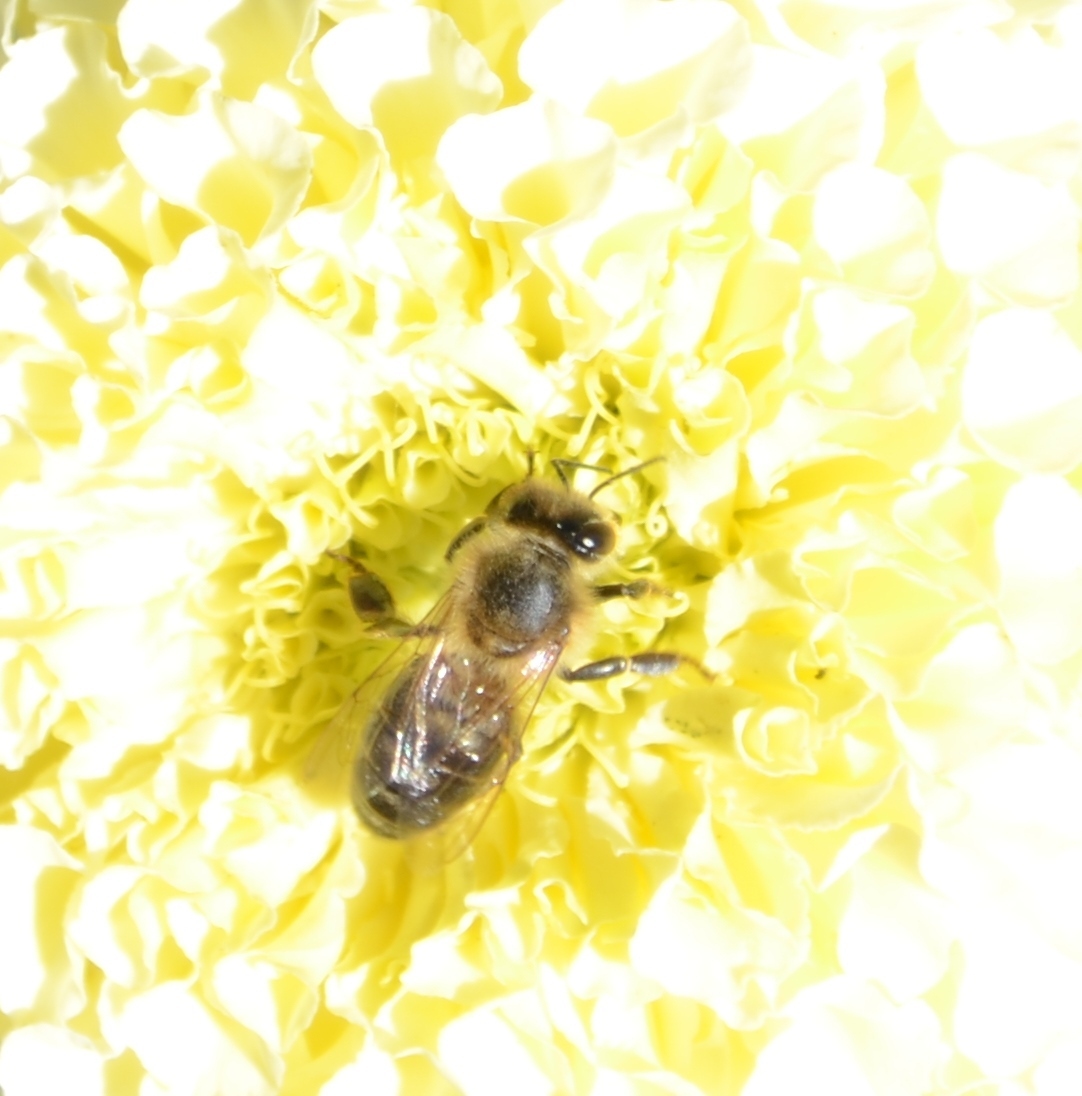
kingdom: Animalia
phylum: Arthropoda
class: Insecta
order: Hymenoptera
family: Apidae
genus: Apis
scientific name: Apis mellifera
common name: Honey bee
